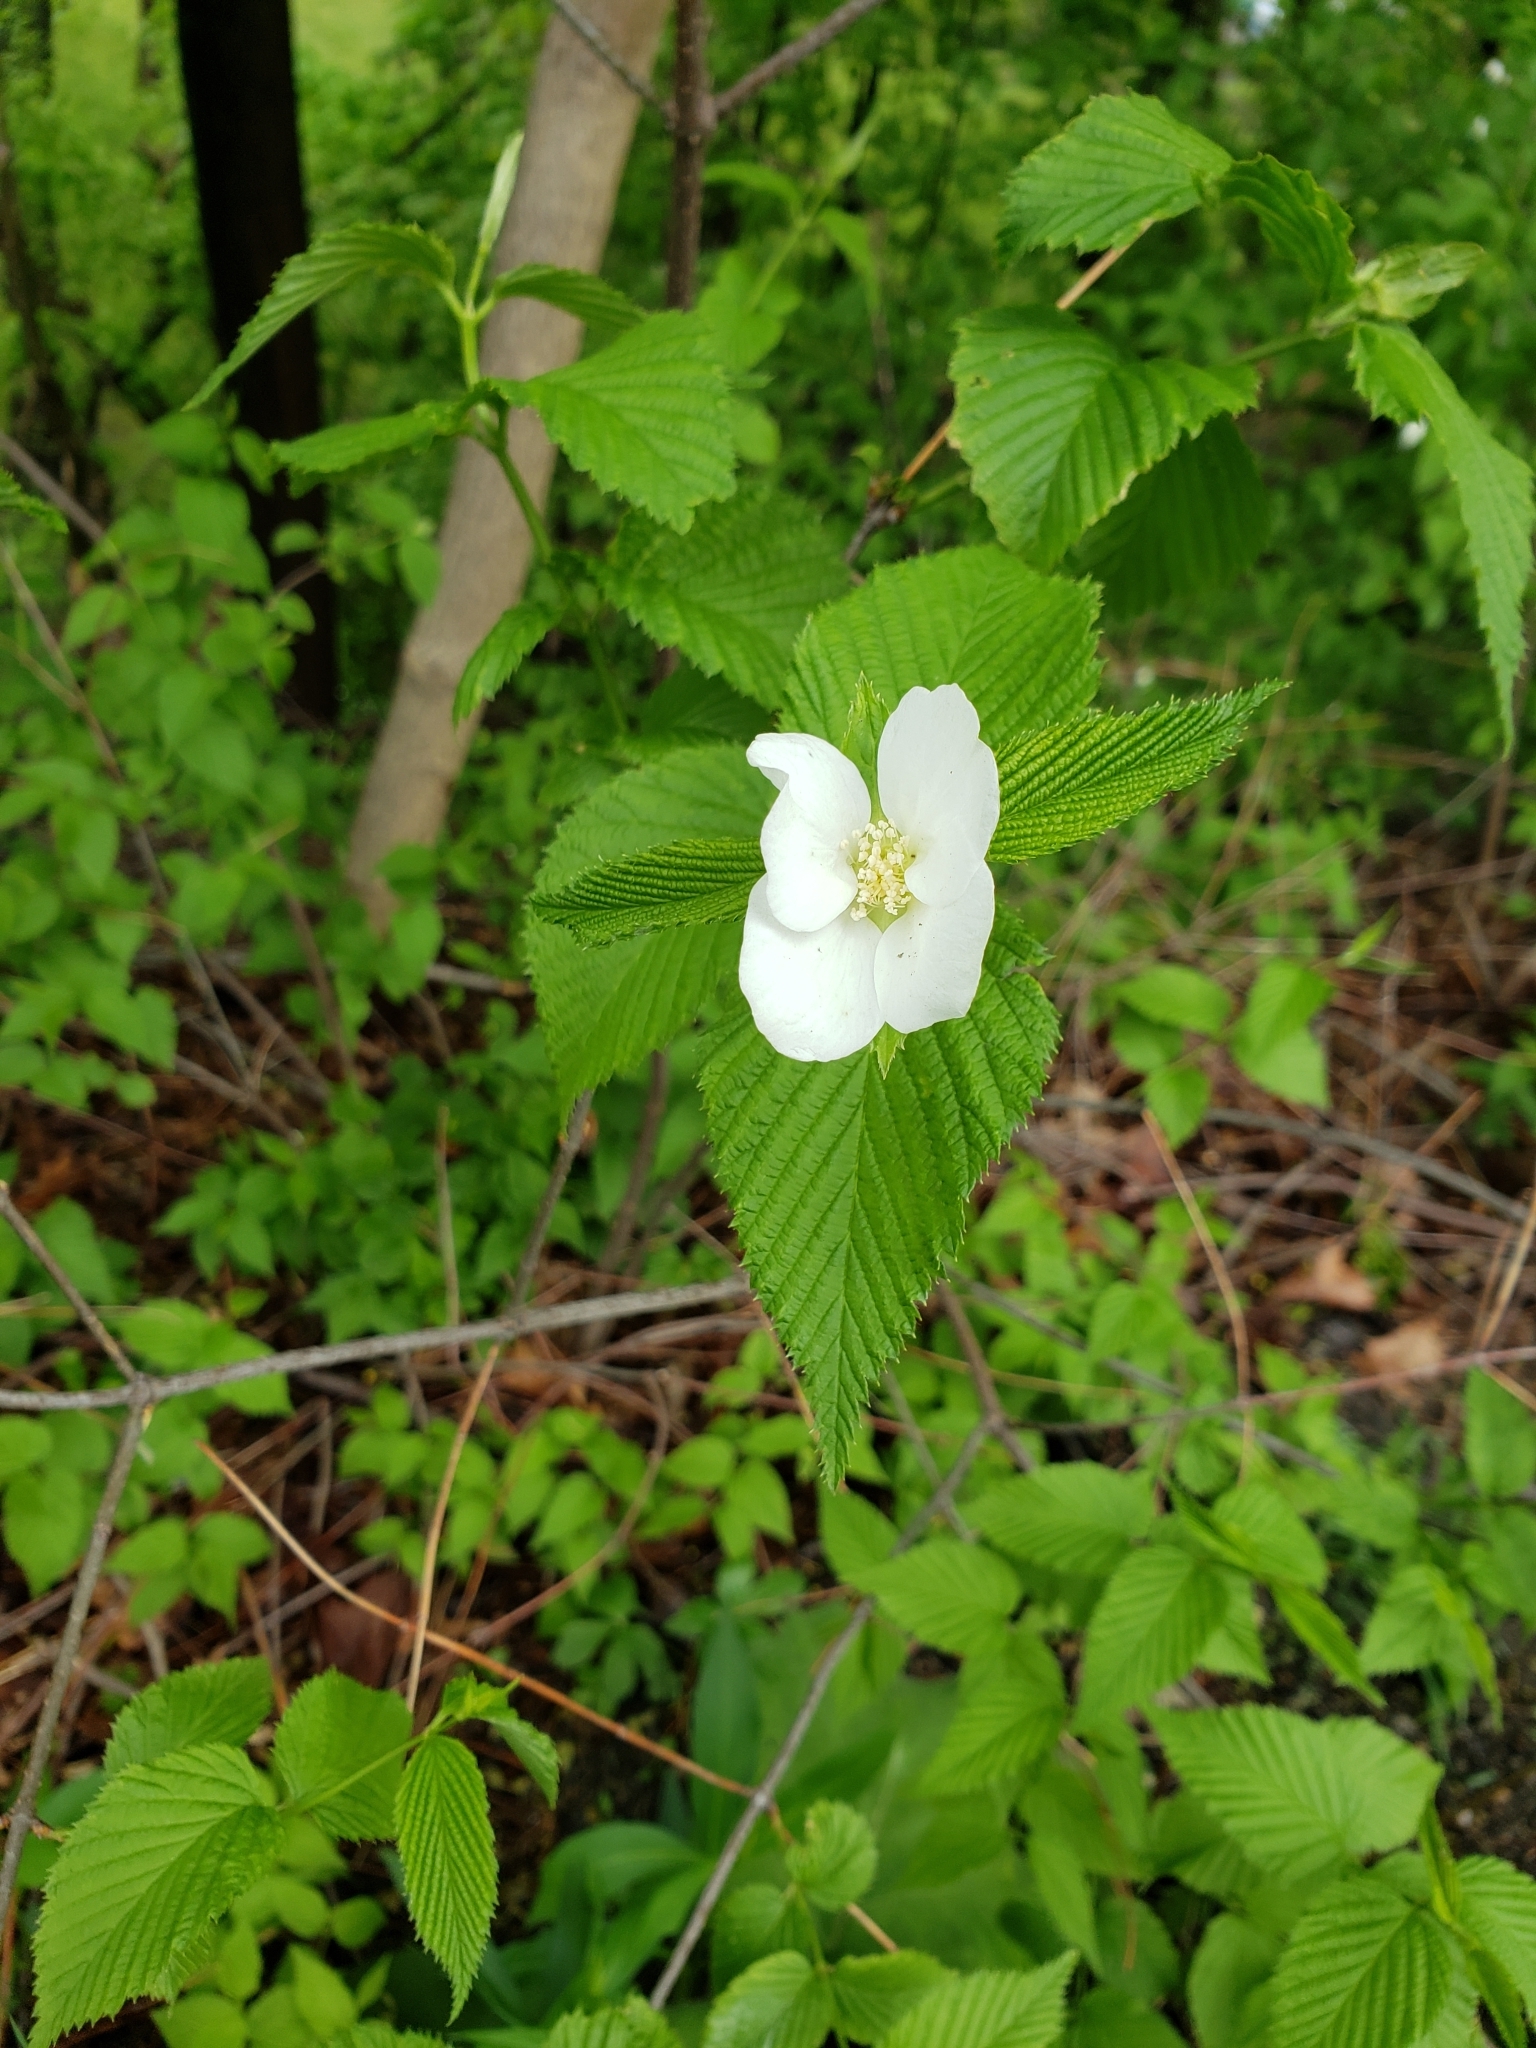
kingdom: Plantae
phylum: Tracheophyta
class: Magnoliopsida
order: Rosales
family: Rosaceae
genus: Rhodotypos
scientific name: Rhodotypos scandens
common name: Jetbead
